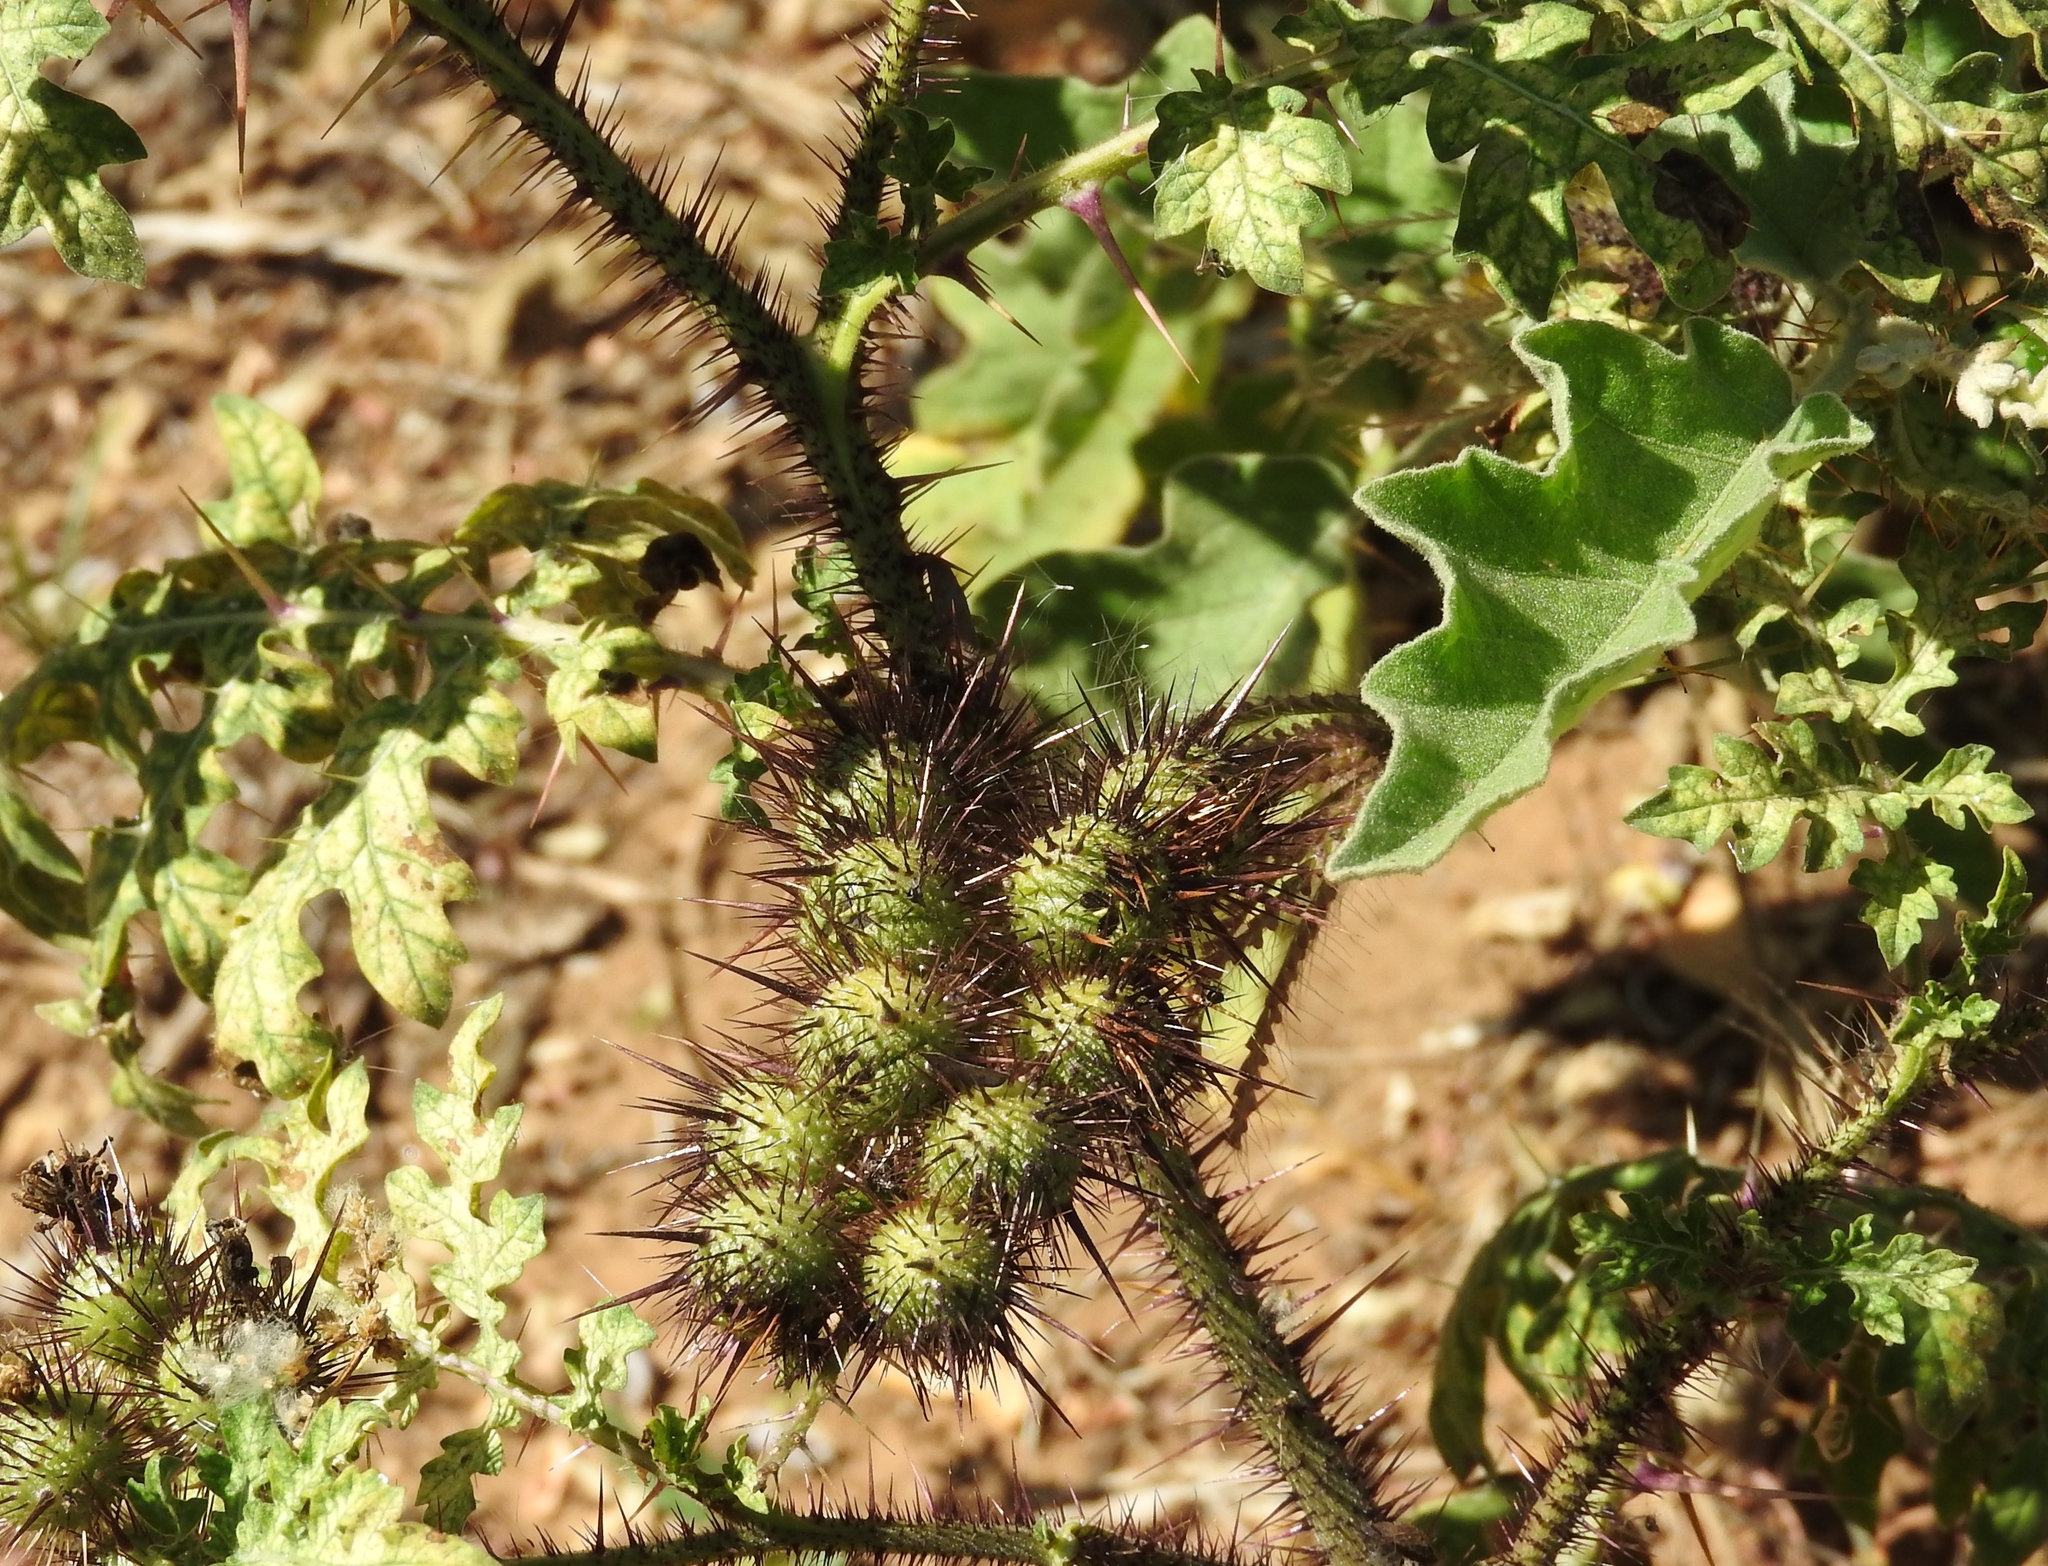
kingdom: Plantae
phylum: Tracheophyta
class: Magnoliopsida
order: Solanales
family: Solanaceae
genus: Solanum
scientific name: Solanum grayi
